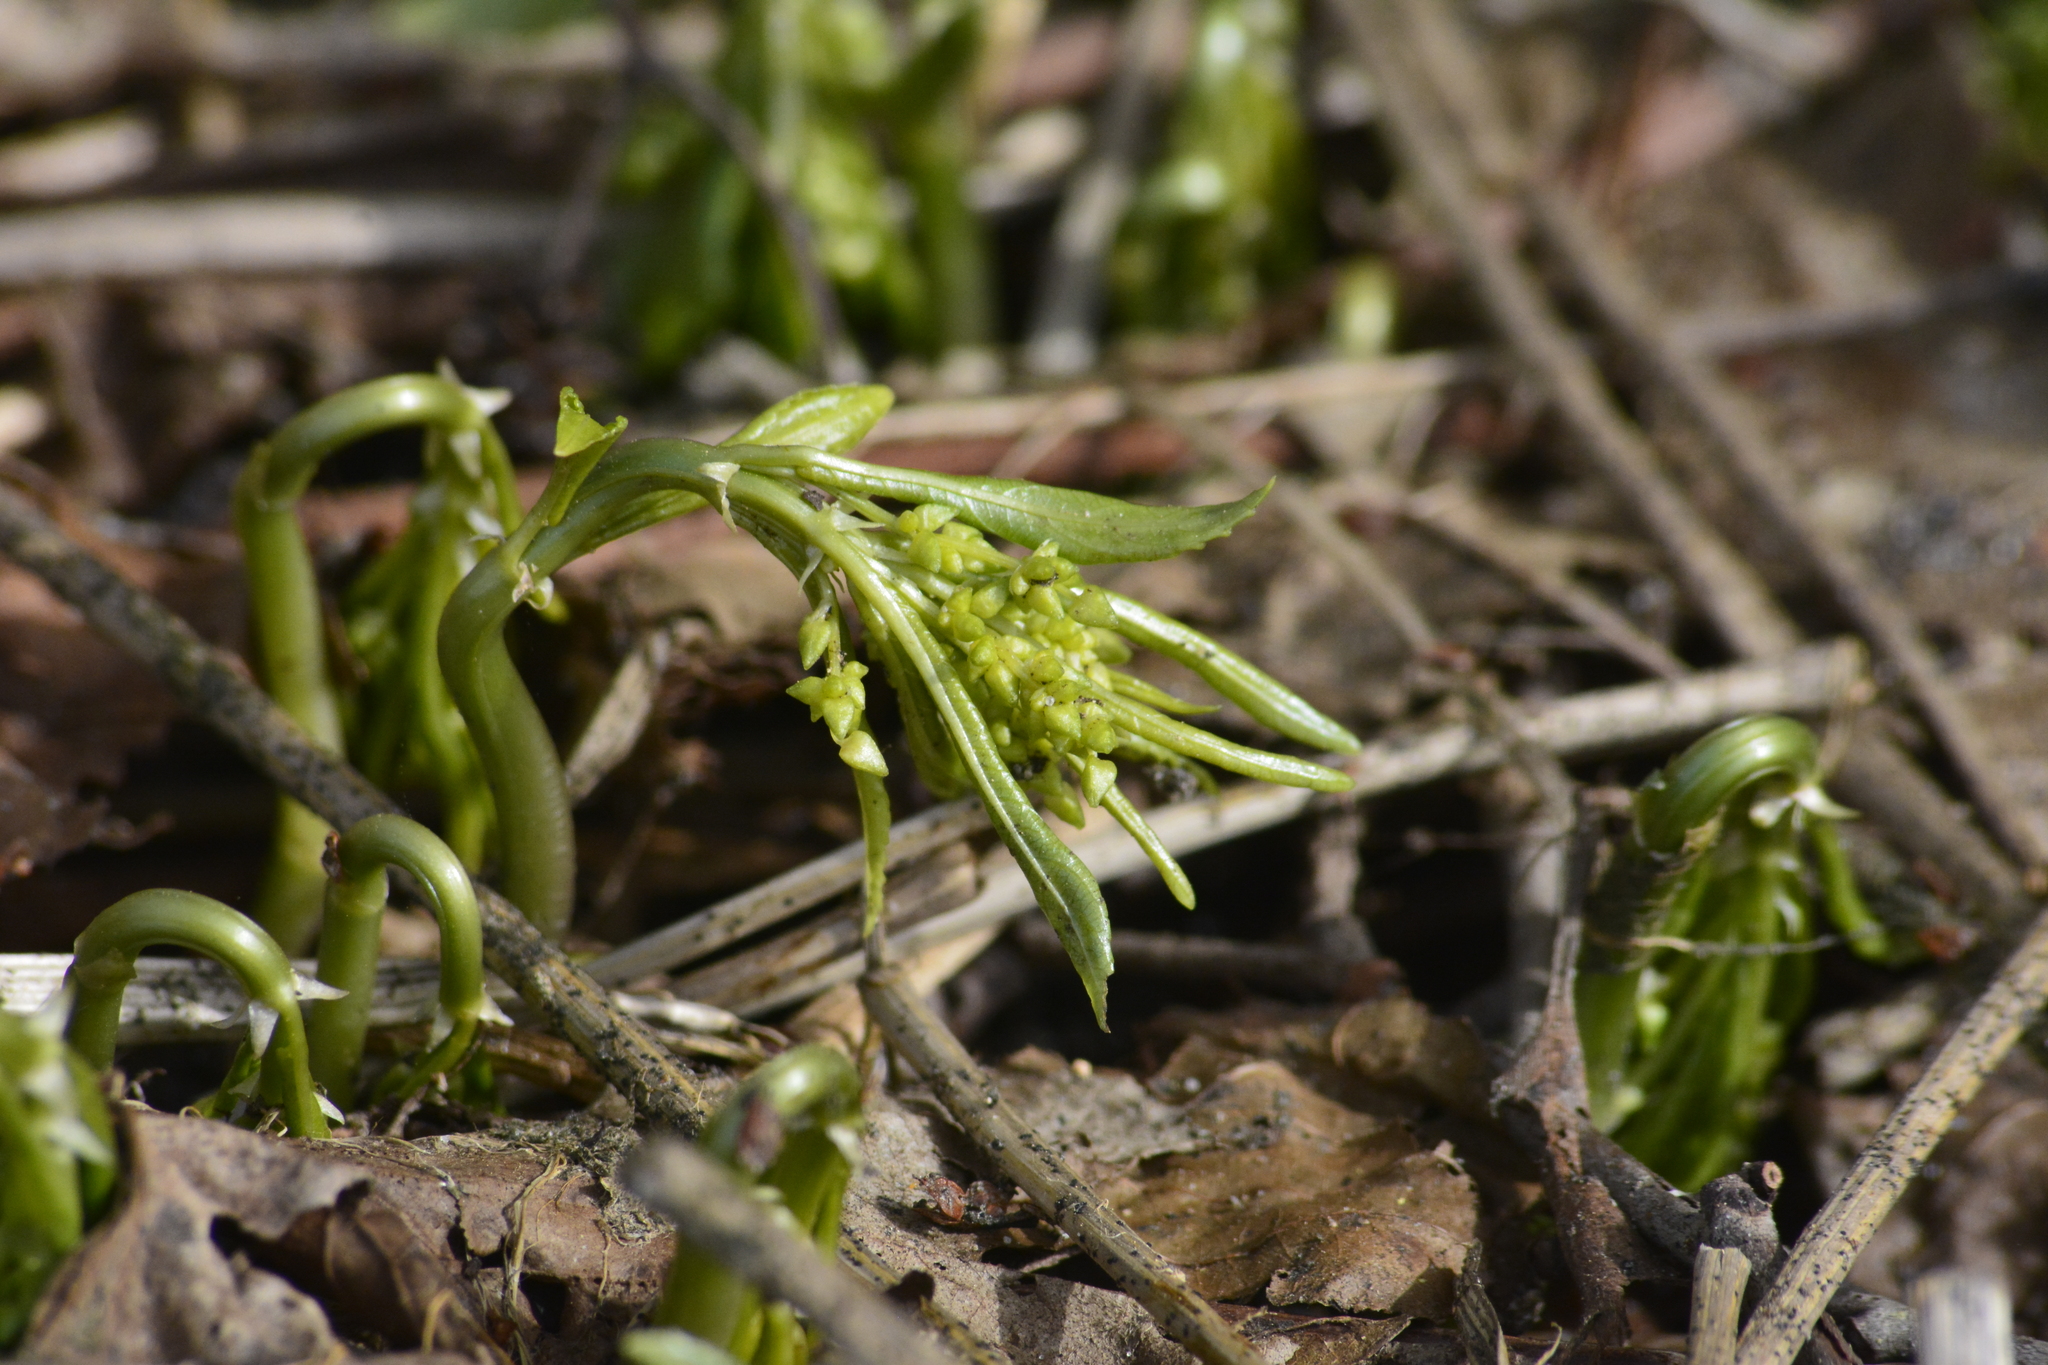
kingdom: Plantae
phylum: Tracheophyta
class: Magnoliopsida
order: Malpighiales
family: Euphorbiaceae
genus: Mercurialis
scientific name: Mercurialis perennis
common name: Dog mercury
